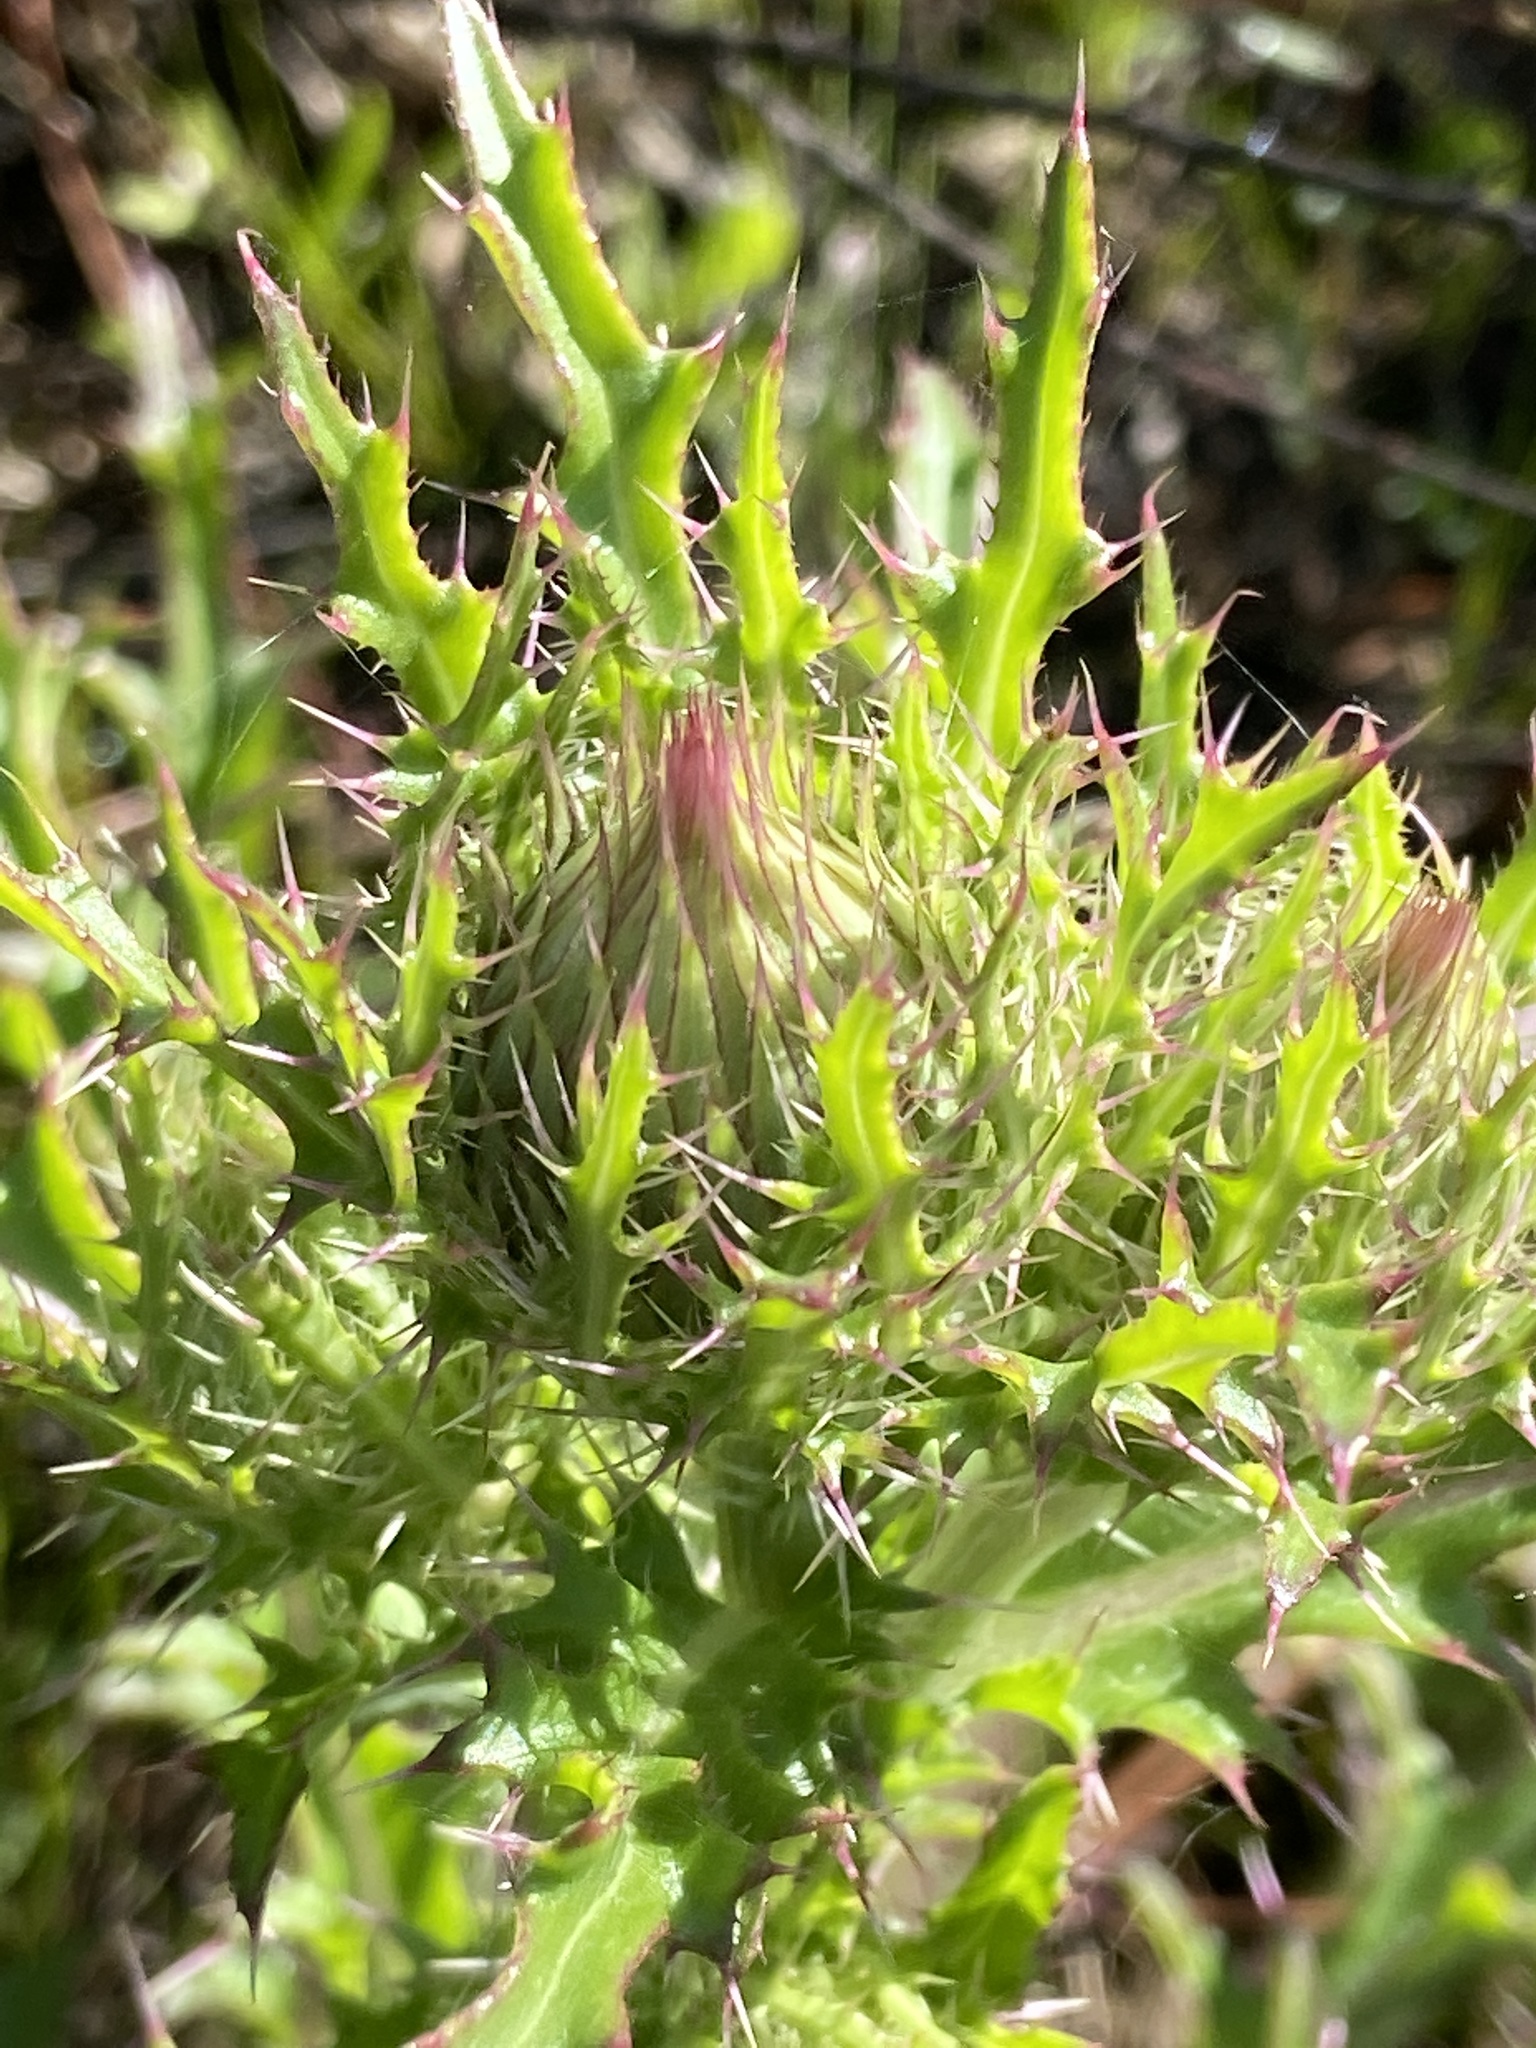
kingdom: Plantae
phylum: Tracheophyta
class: Magnoliopsida
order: Asterales
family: Asteraceae
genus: Cirsium
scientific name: Cirsium horridulum
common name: Bristly thistle
